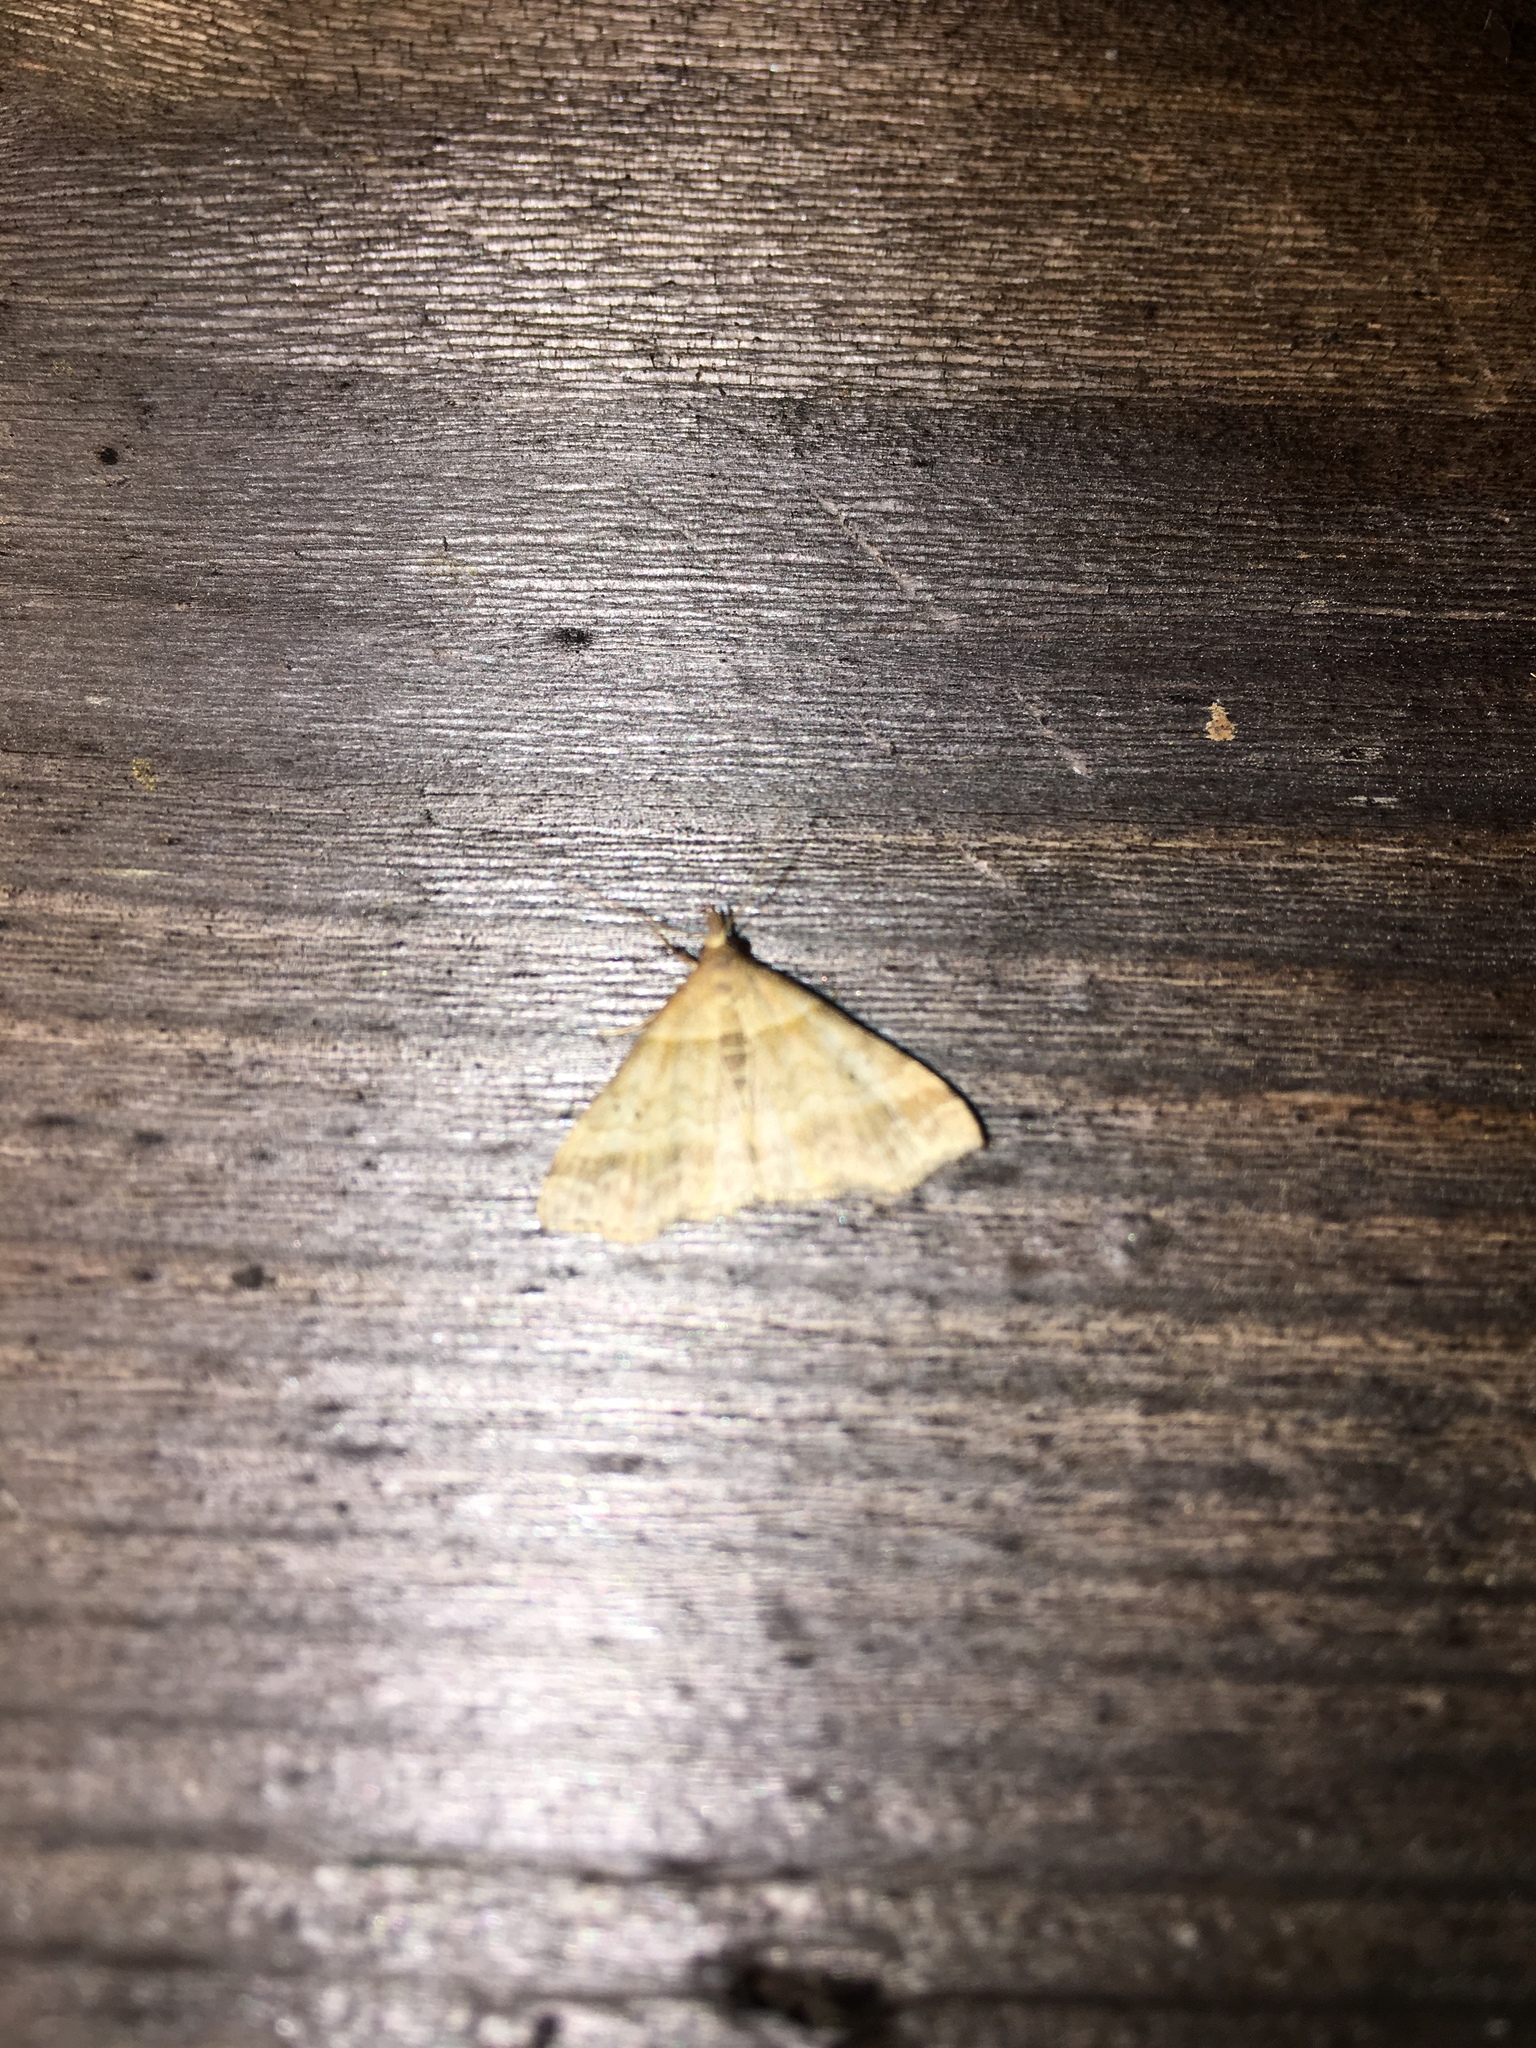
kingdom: Animalia
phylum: Arthropoda
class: Insecta
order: Lepidoptera
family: Erebidae
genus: Phaeolita
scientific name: Phaeolita pyramusalis
